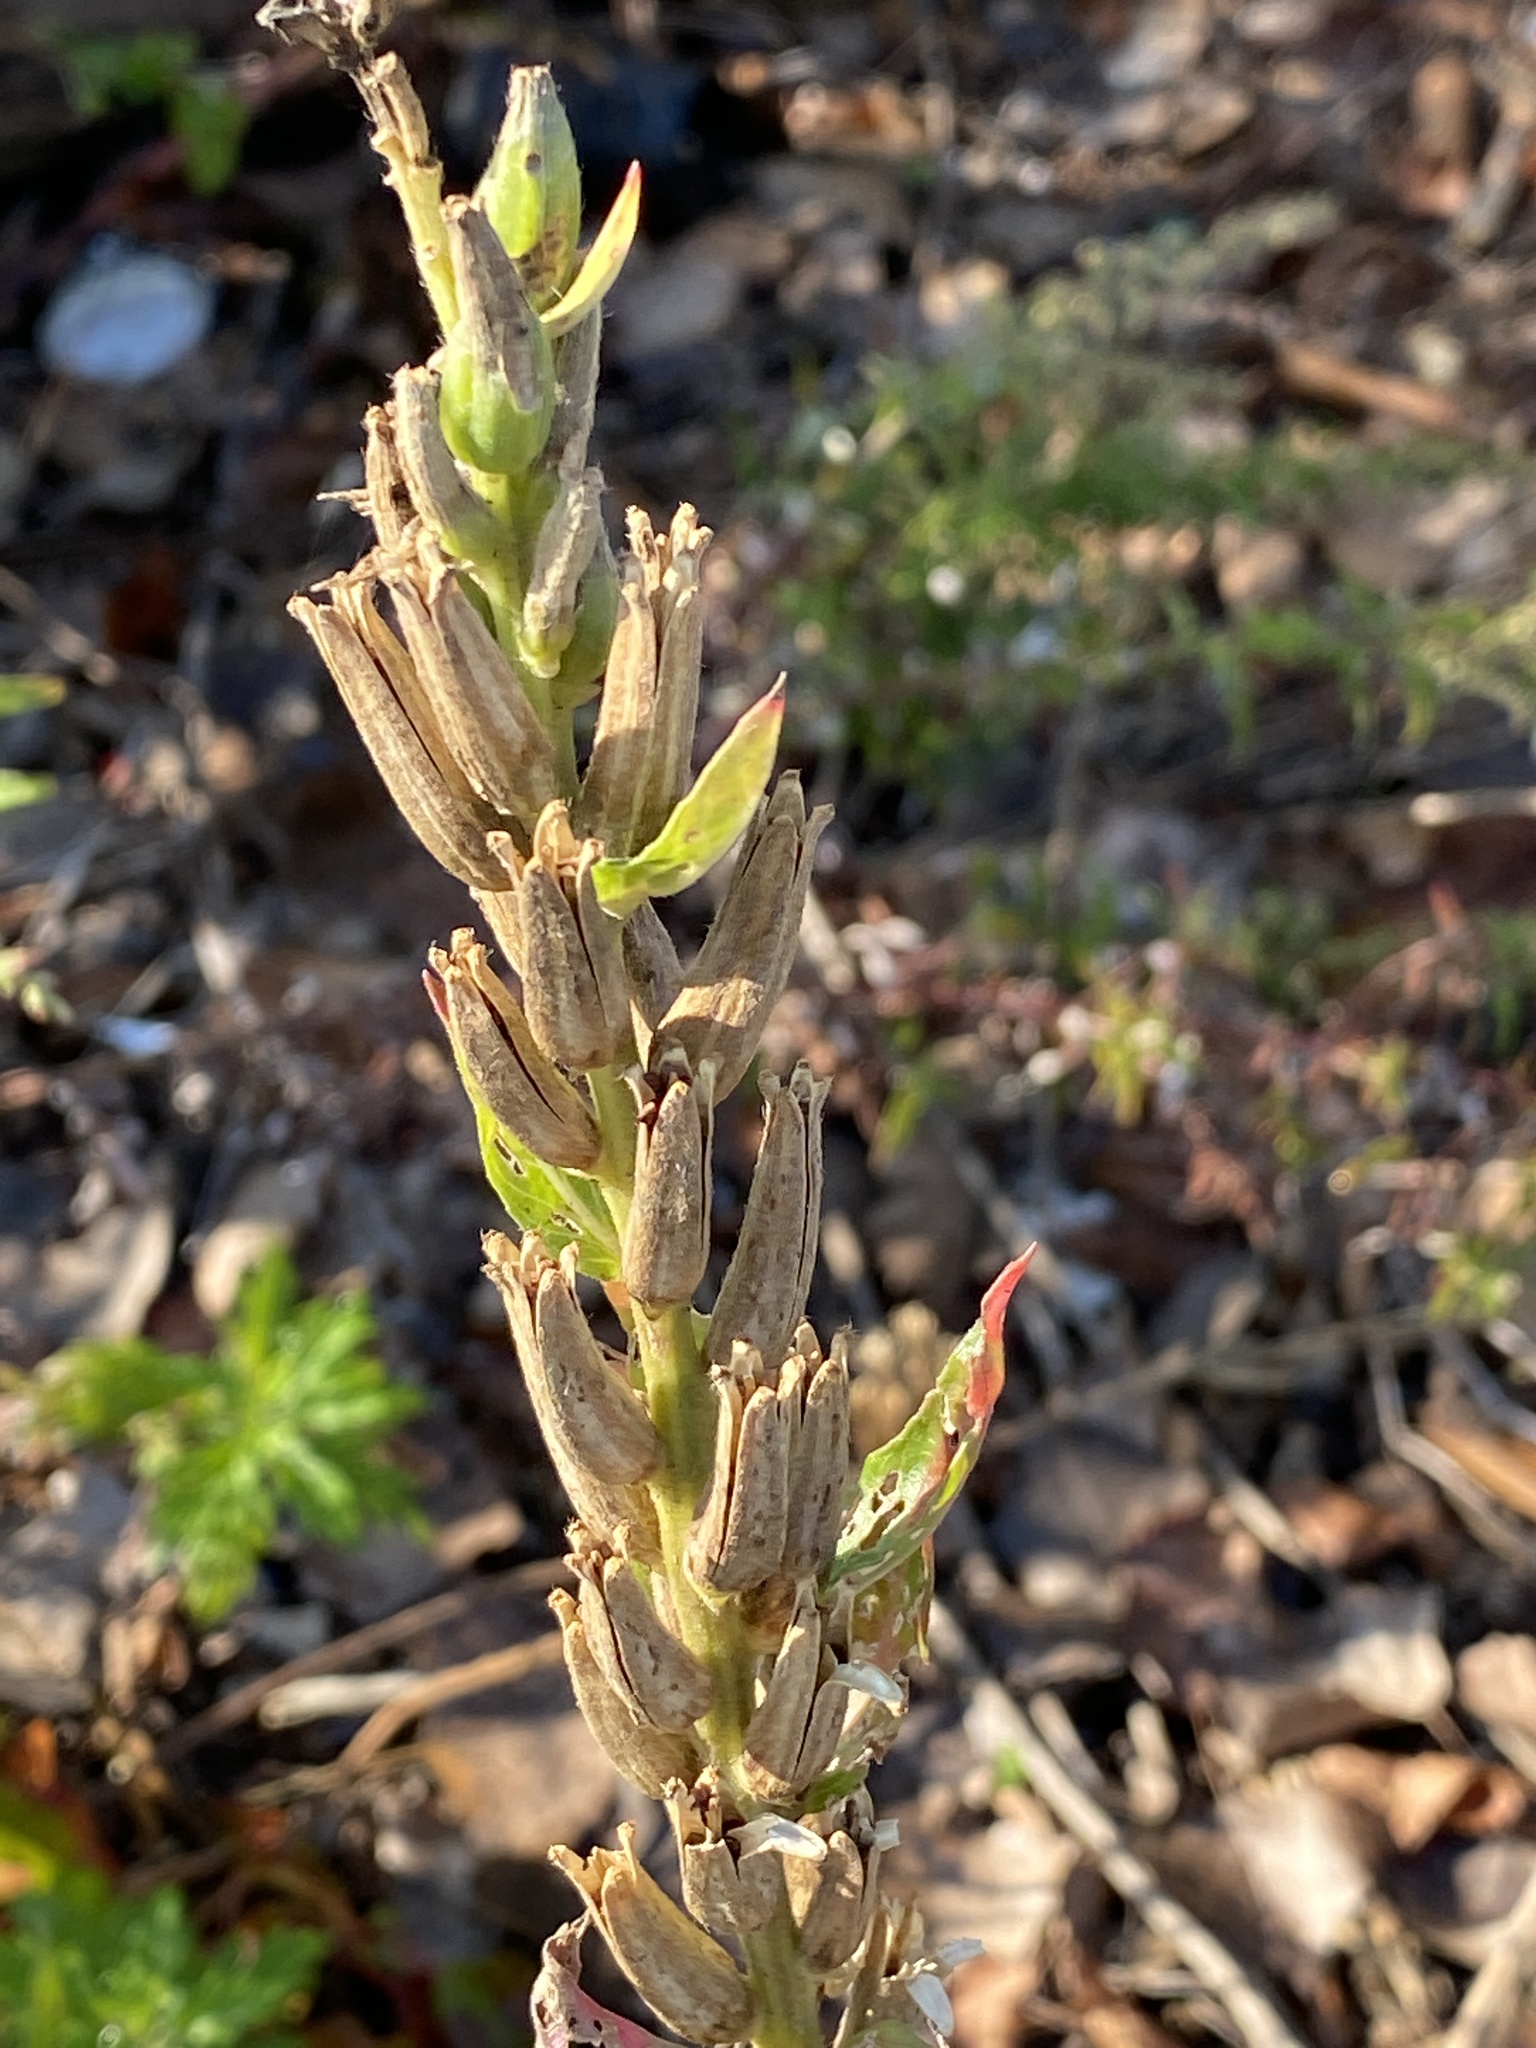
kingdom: Plantae
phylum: Tracheophyta
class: Magnoliopsida
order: Myrtales
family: Onagraceae
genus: Oenothera
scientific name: Oenothera biennis
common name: Common evening-primrose
